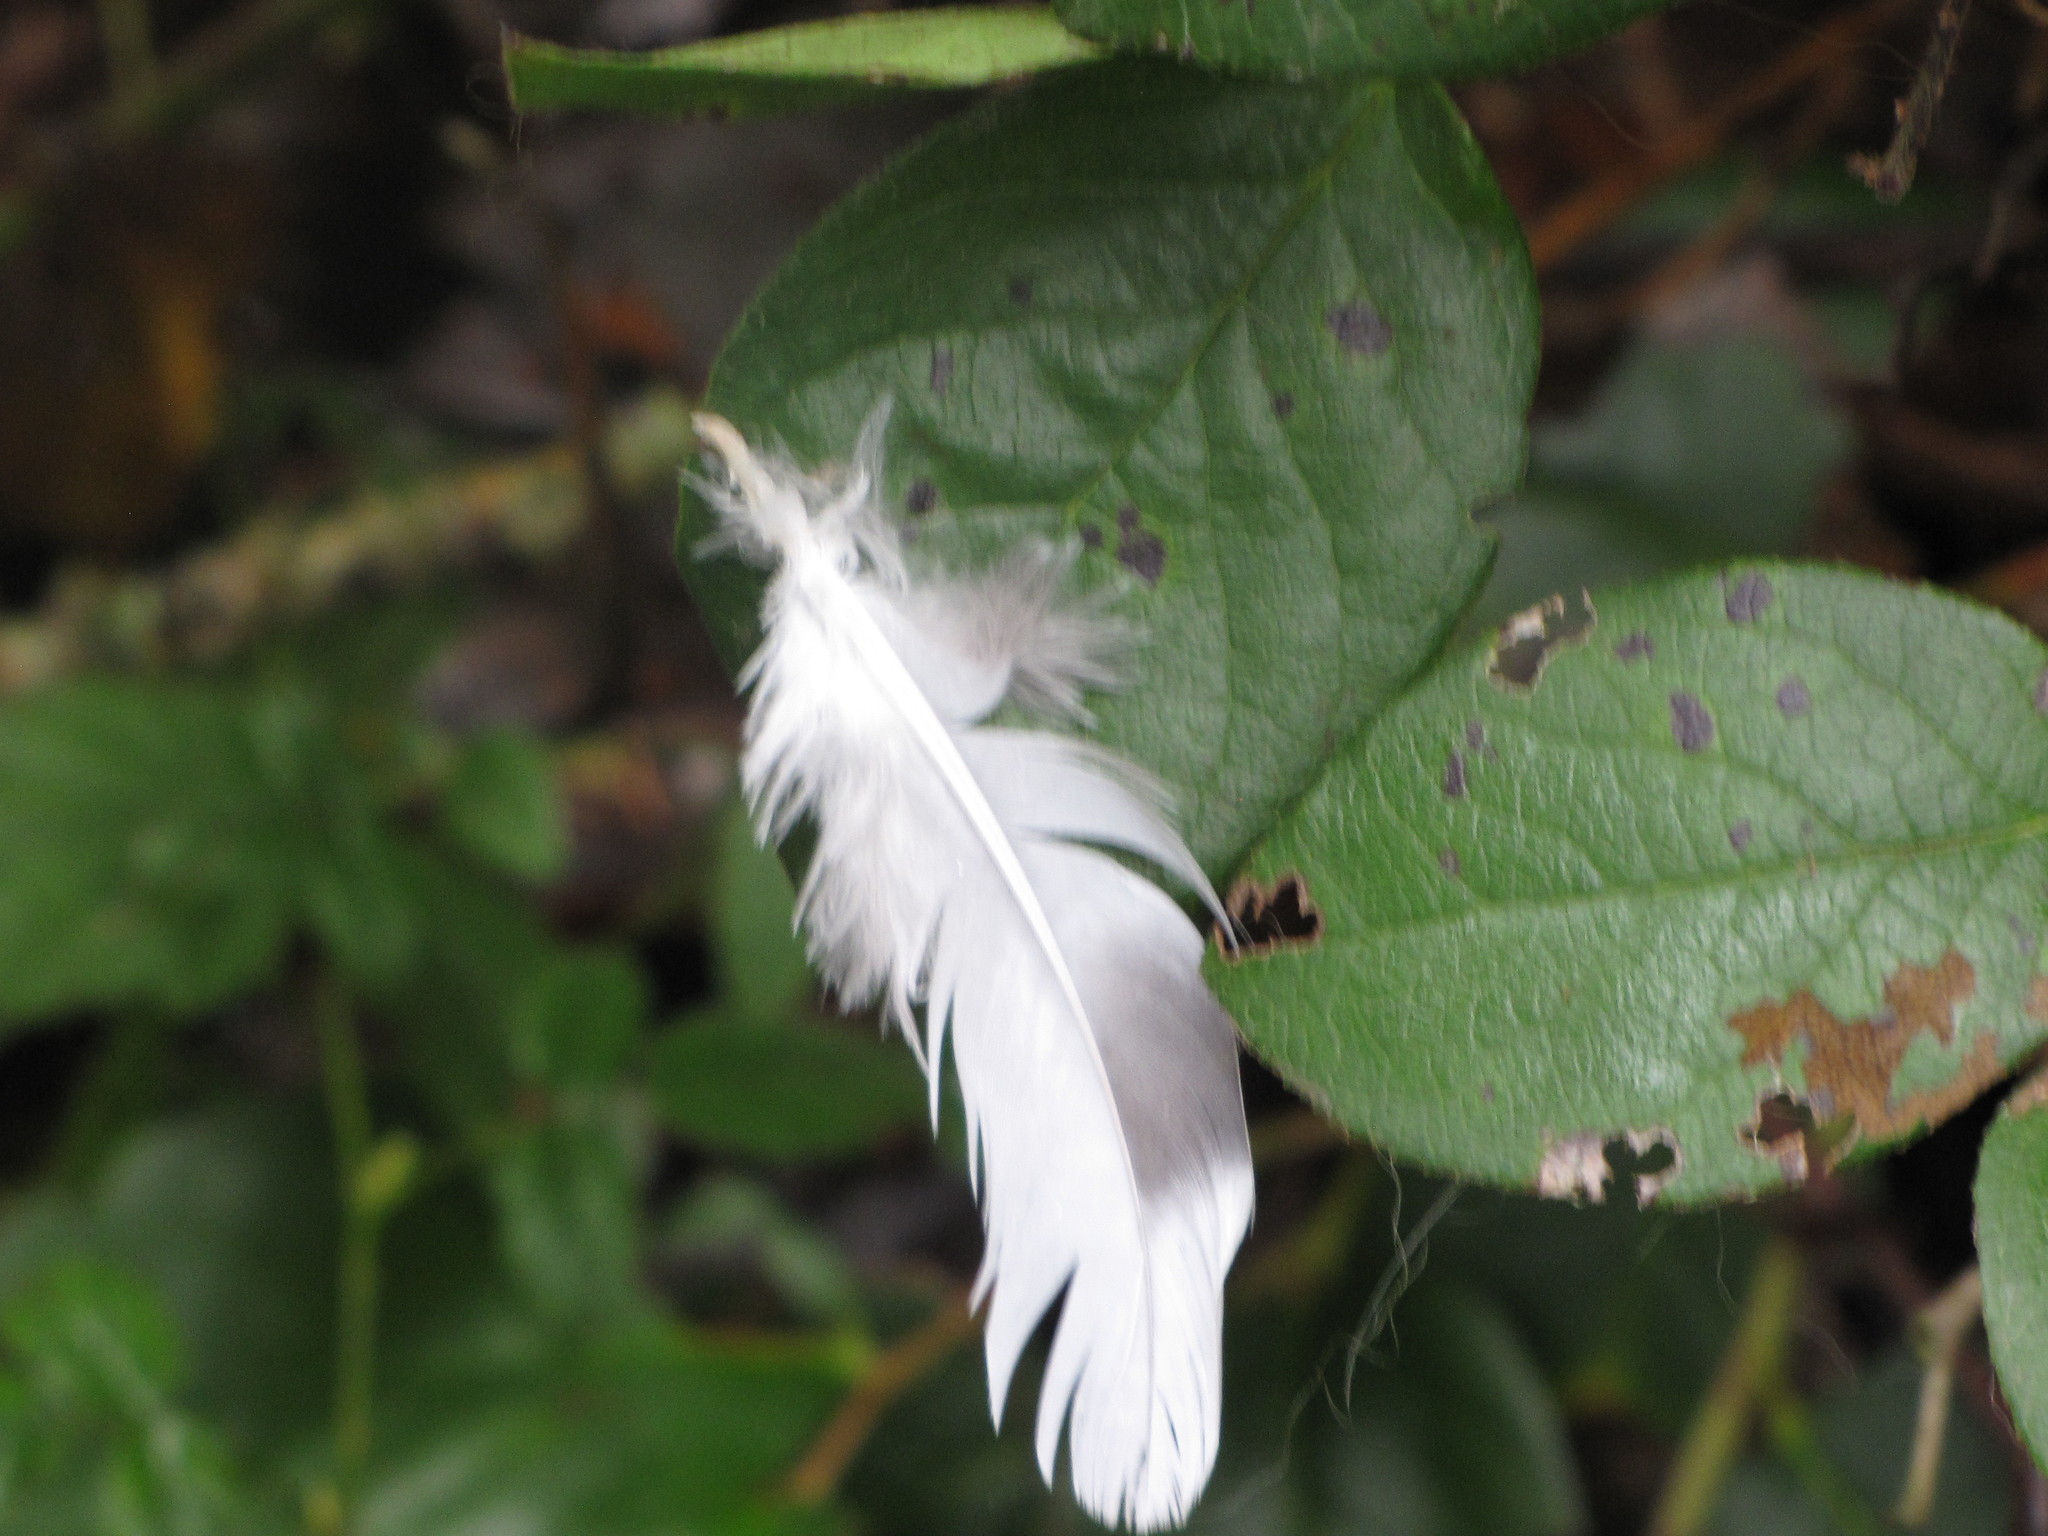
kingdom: Animalia
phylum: Chordata
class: Aves
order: Columbiformes
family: Columbidae
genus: Columba
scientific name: Columba livia
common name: Rock pigeon
